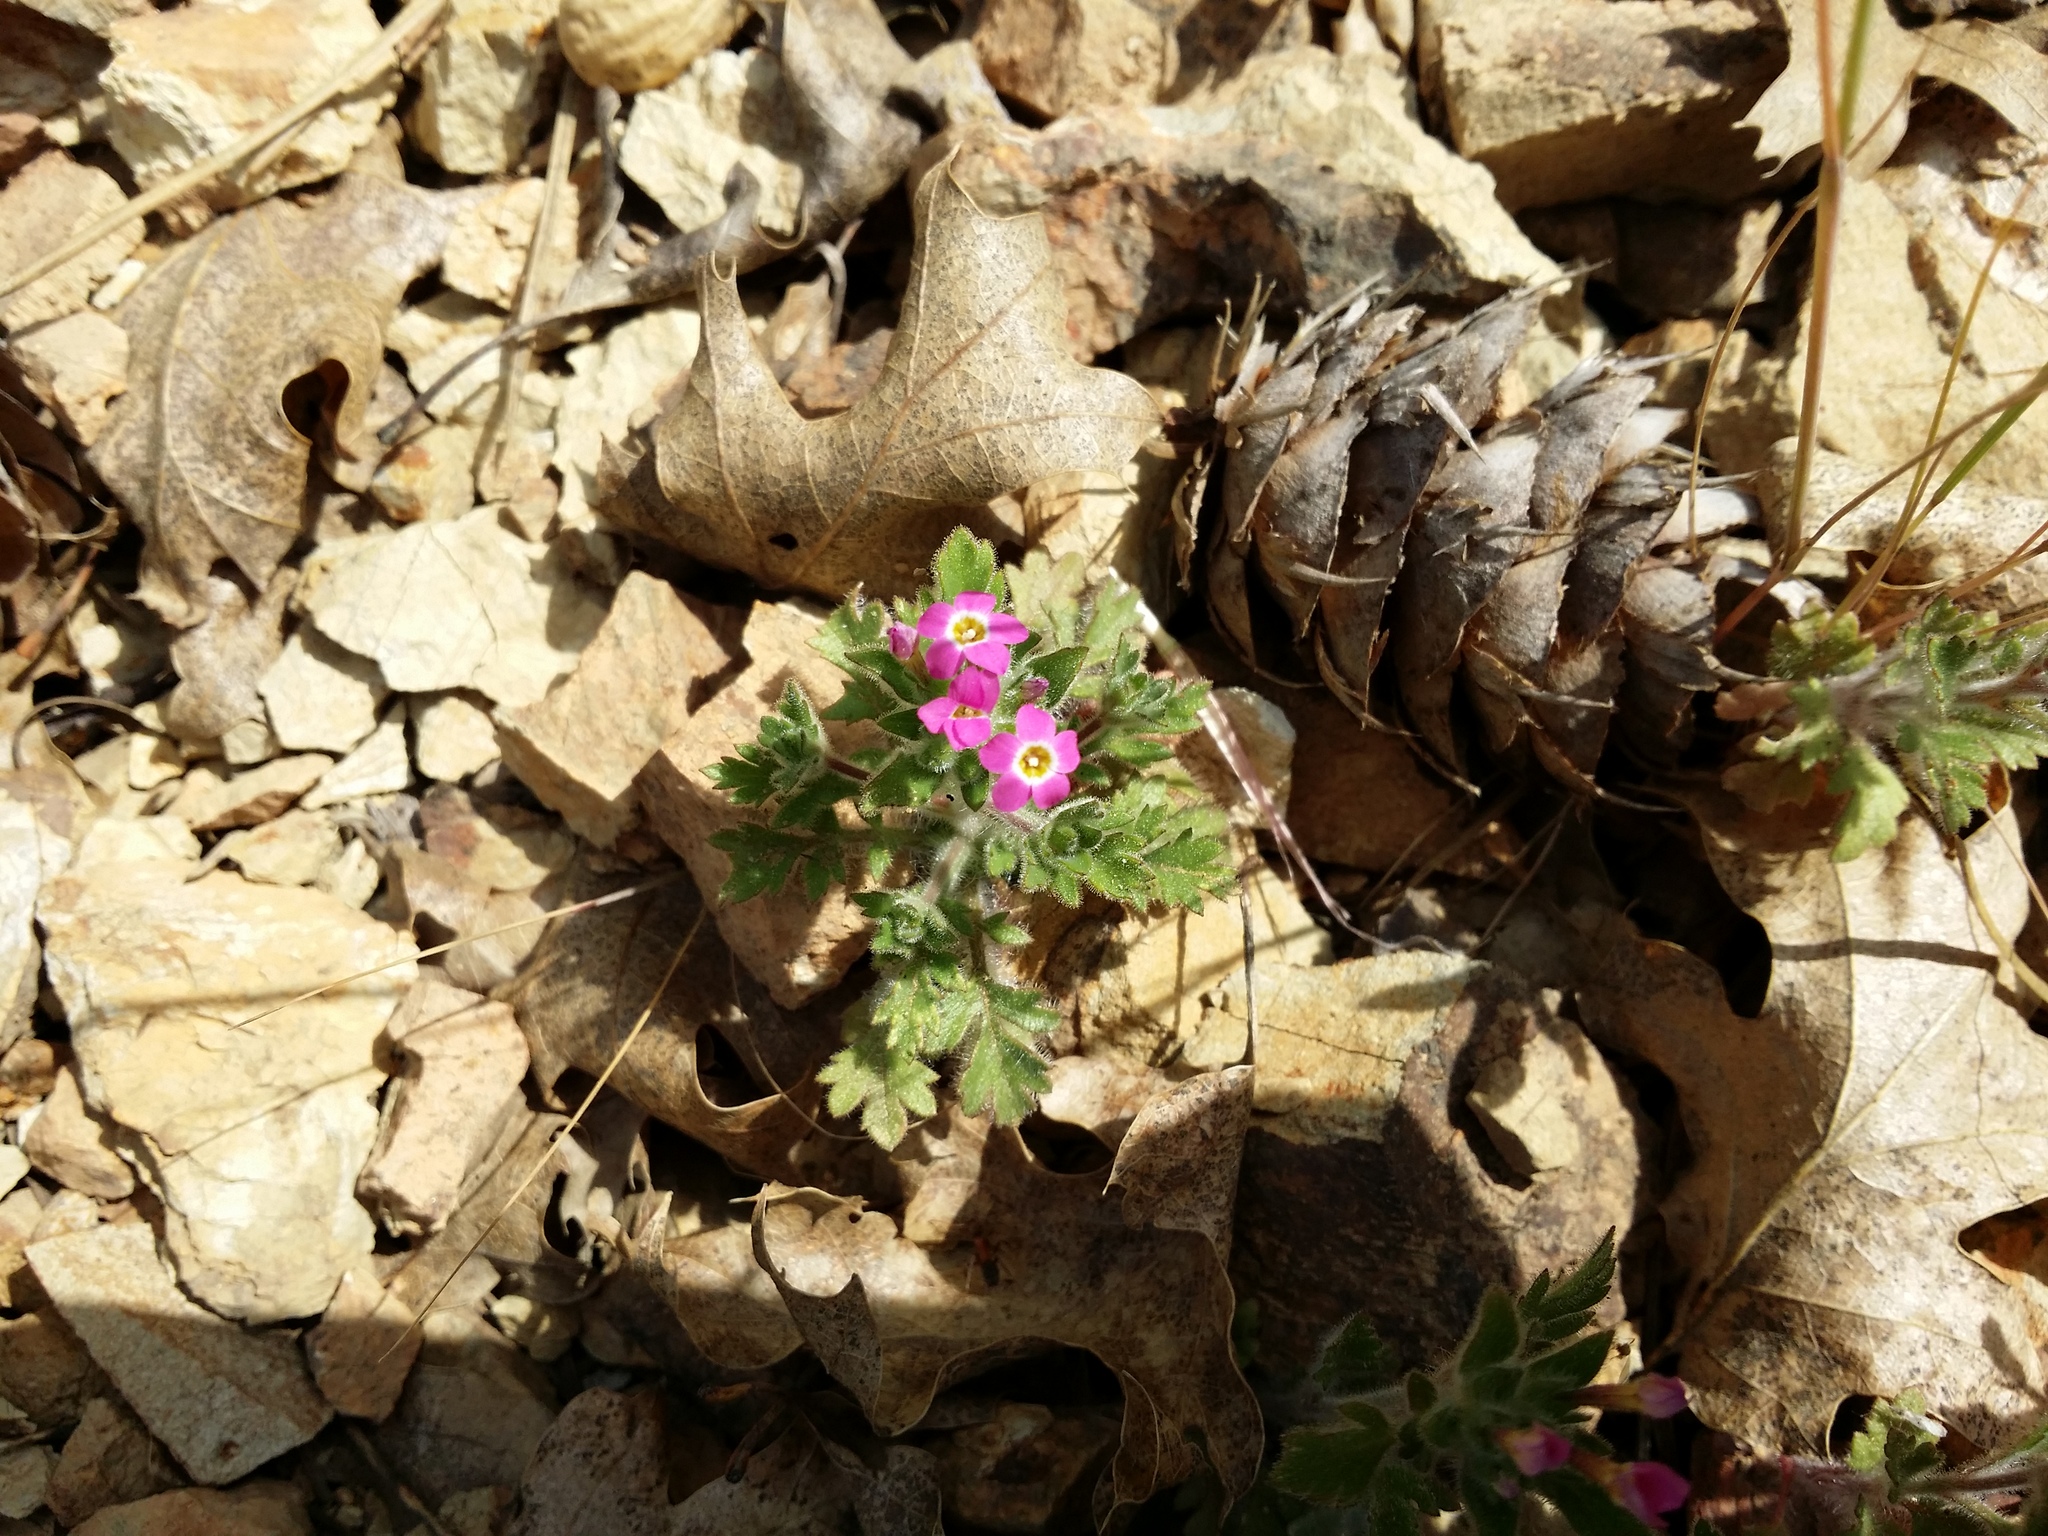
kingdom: Plantae
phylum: Tracheophyta
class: Magnoliopsida
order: Ericales
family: Polemoniaceae
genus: Collomia
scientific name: Collomia heterophylla
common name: Variable-leaved collomia
